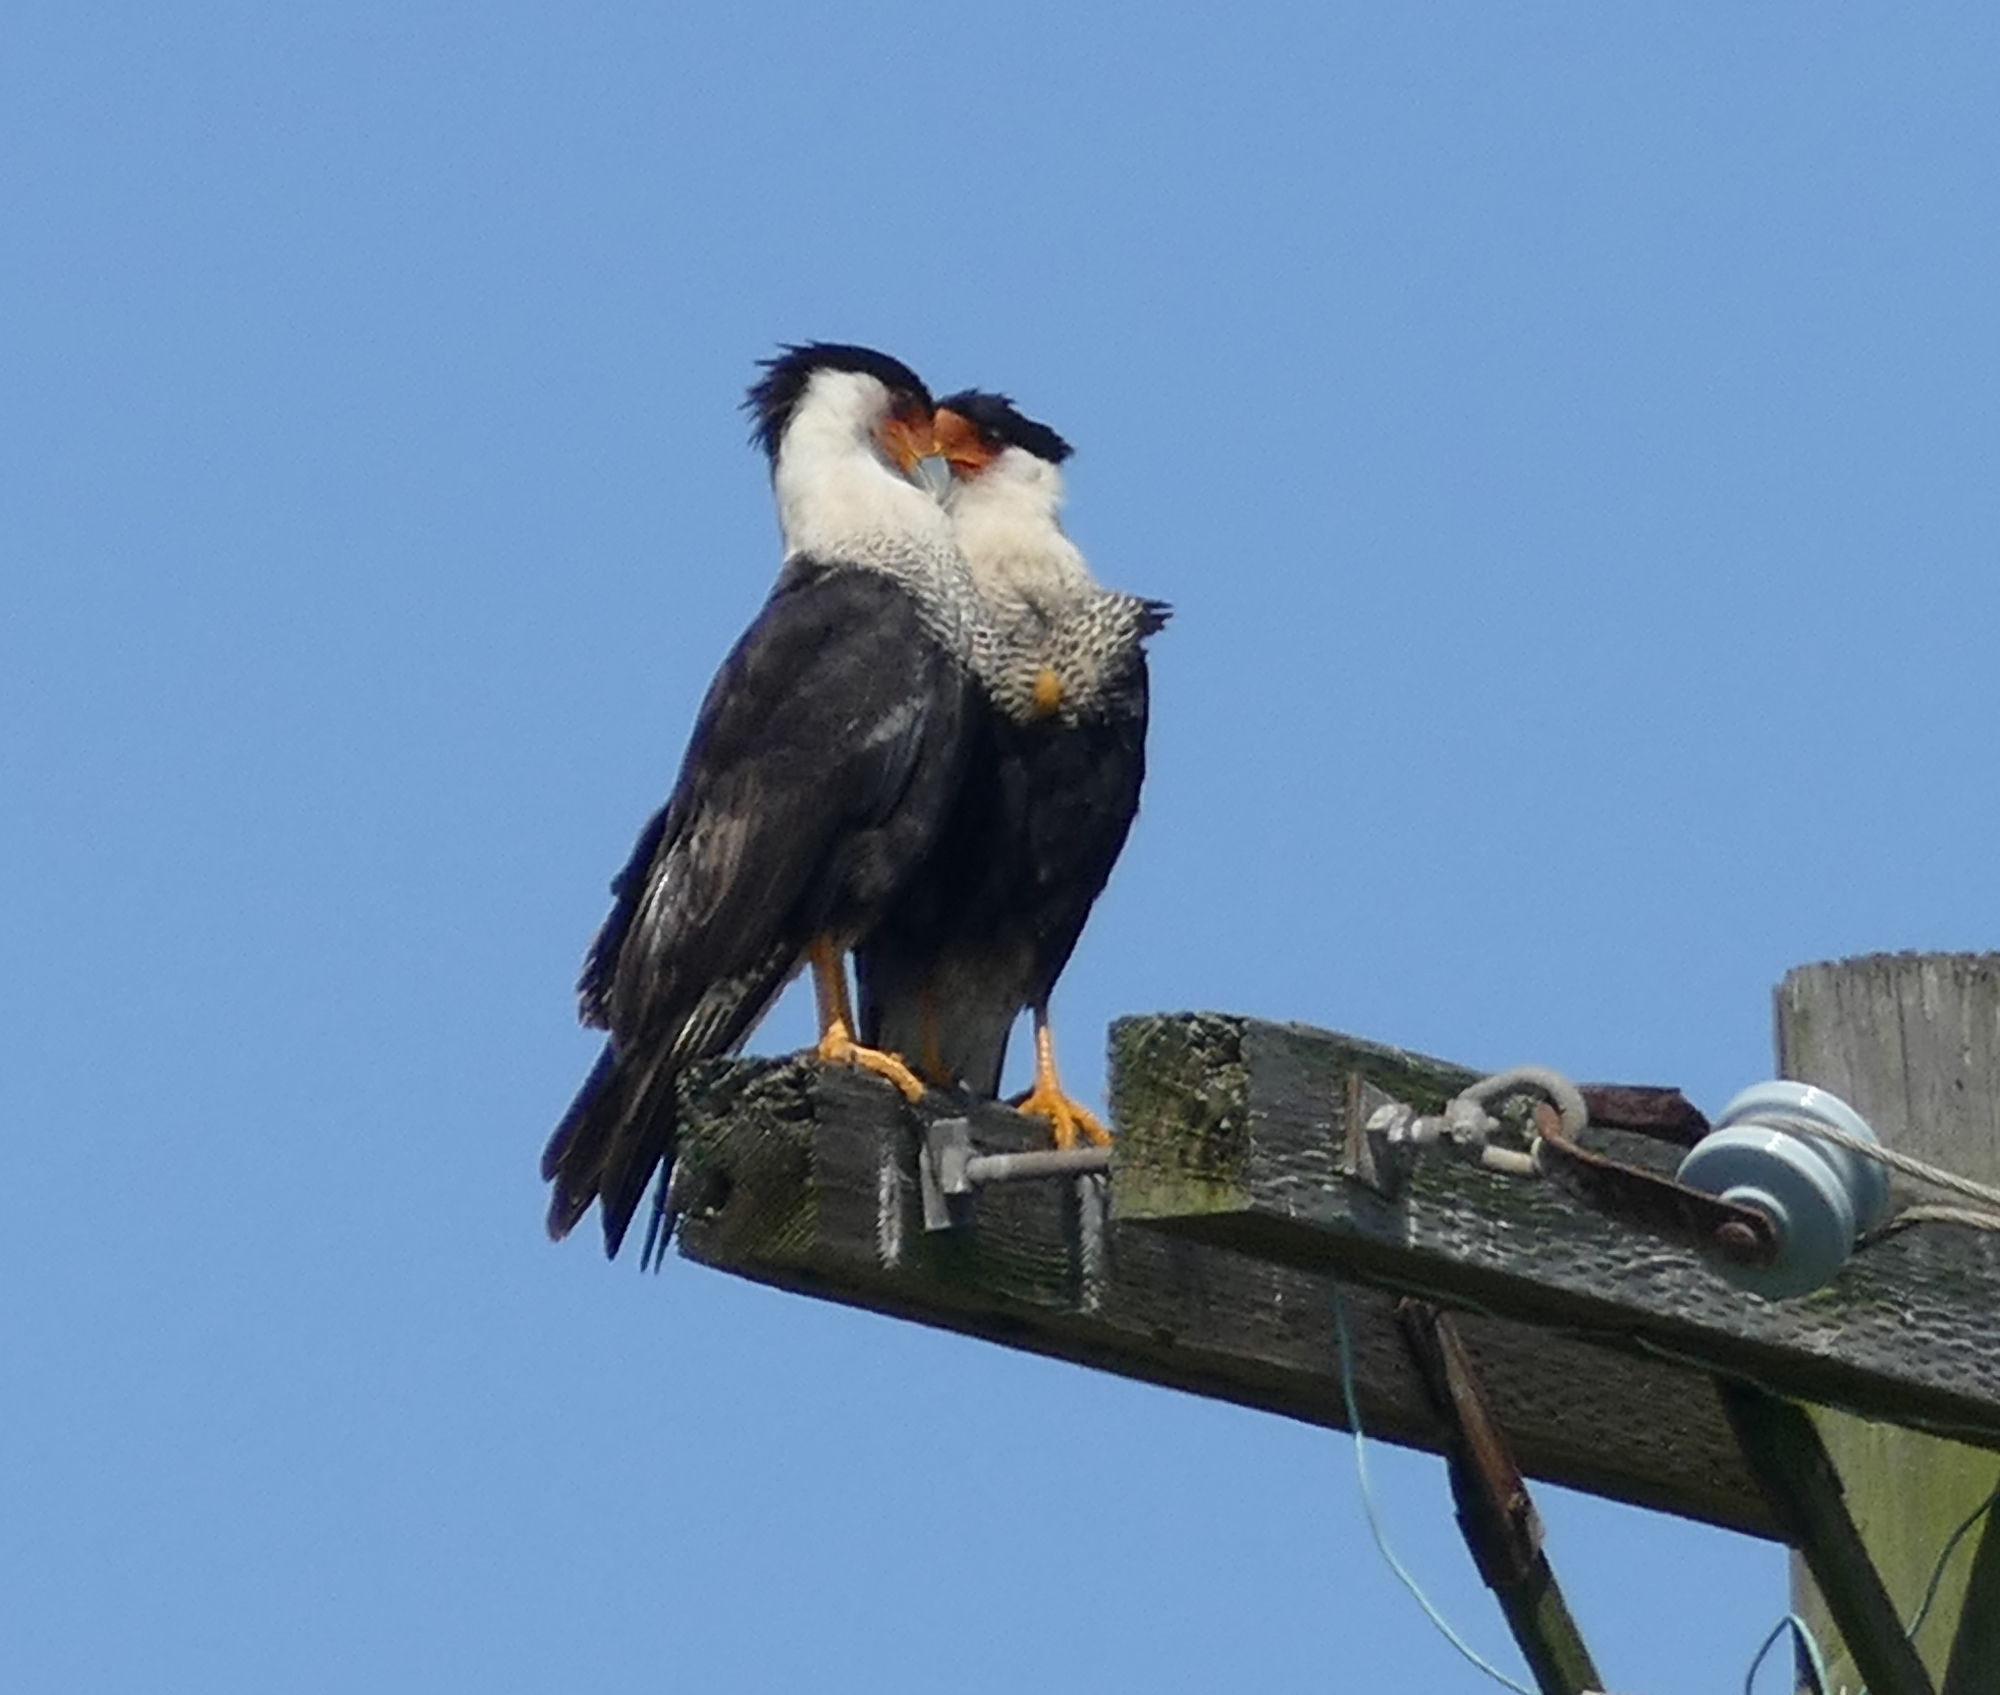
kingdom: Animalia
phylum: Chordata
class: Aves
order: Falconiformes
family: Falconidae
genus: Caracara
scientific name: Caracara plancus
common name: Southern caracara
